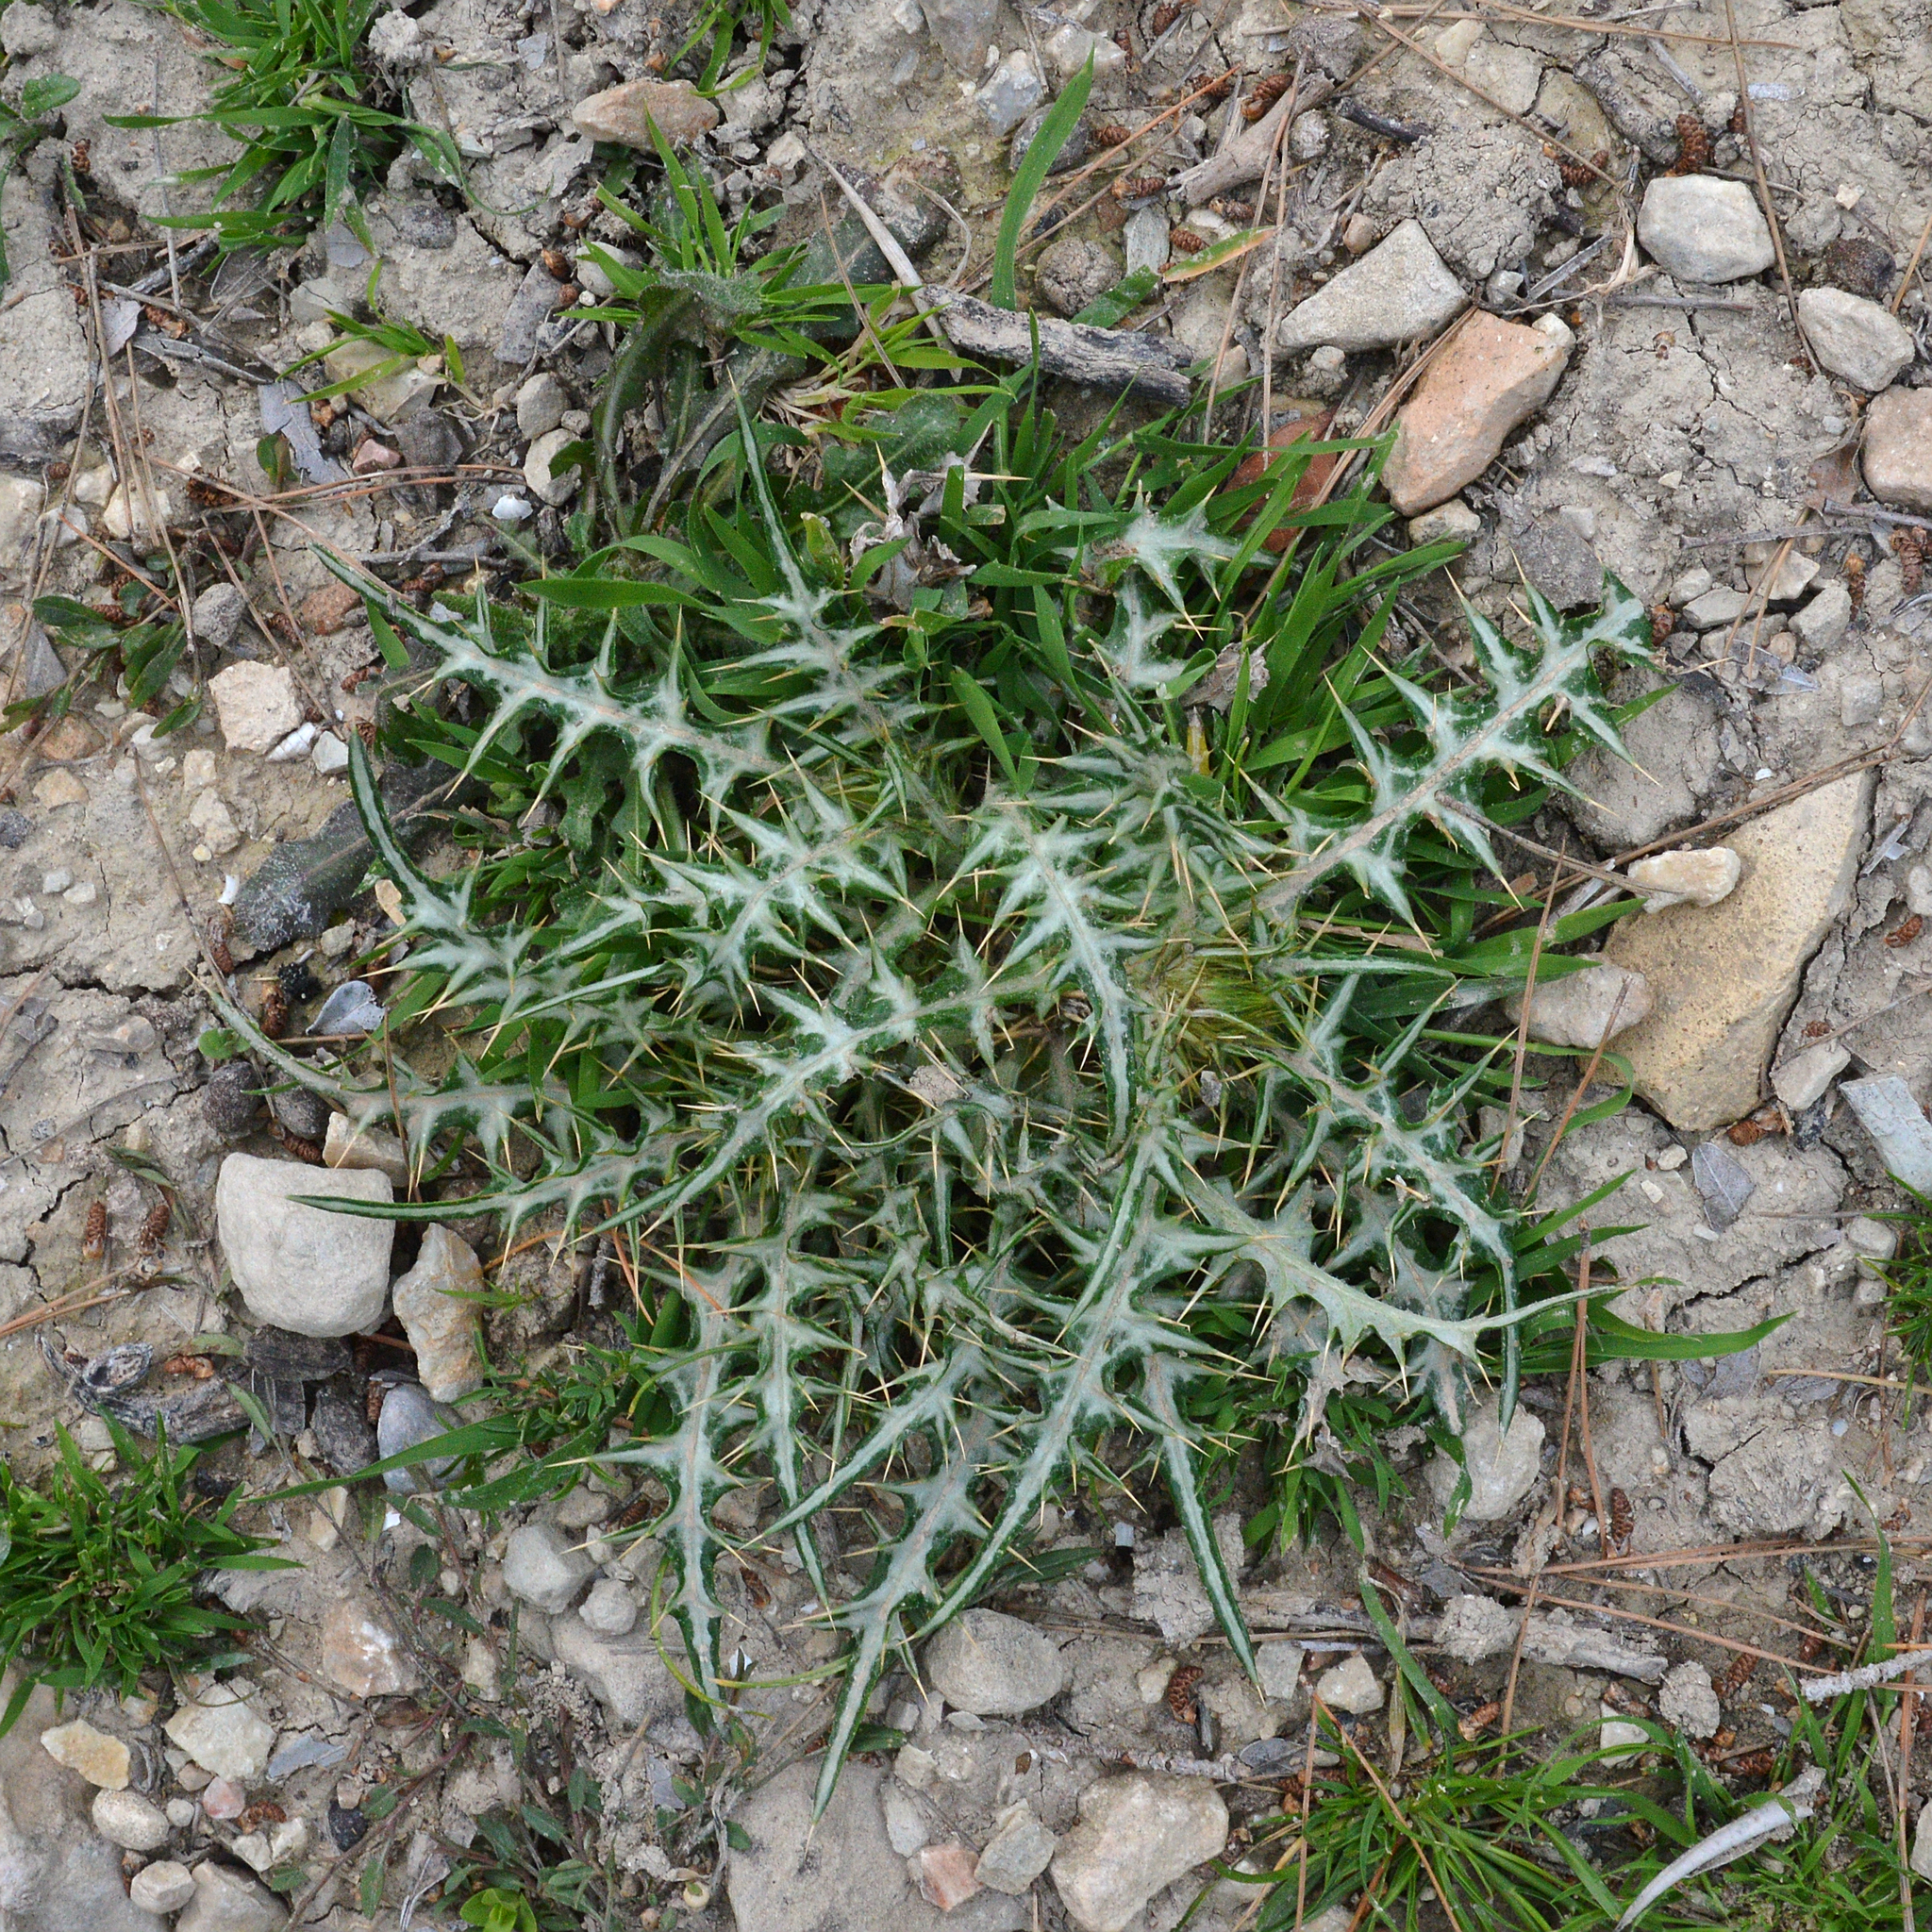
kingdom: Plantae
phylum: Tracheophyta
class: Magnoliopsida
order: Asterales
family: Asteraceae
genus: Galactites
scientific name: Galactites tomentosa
